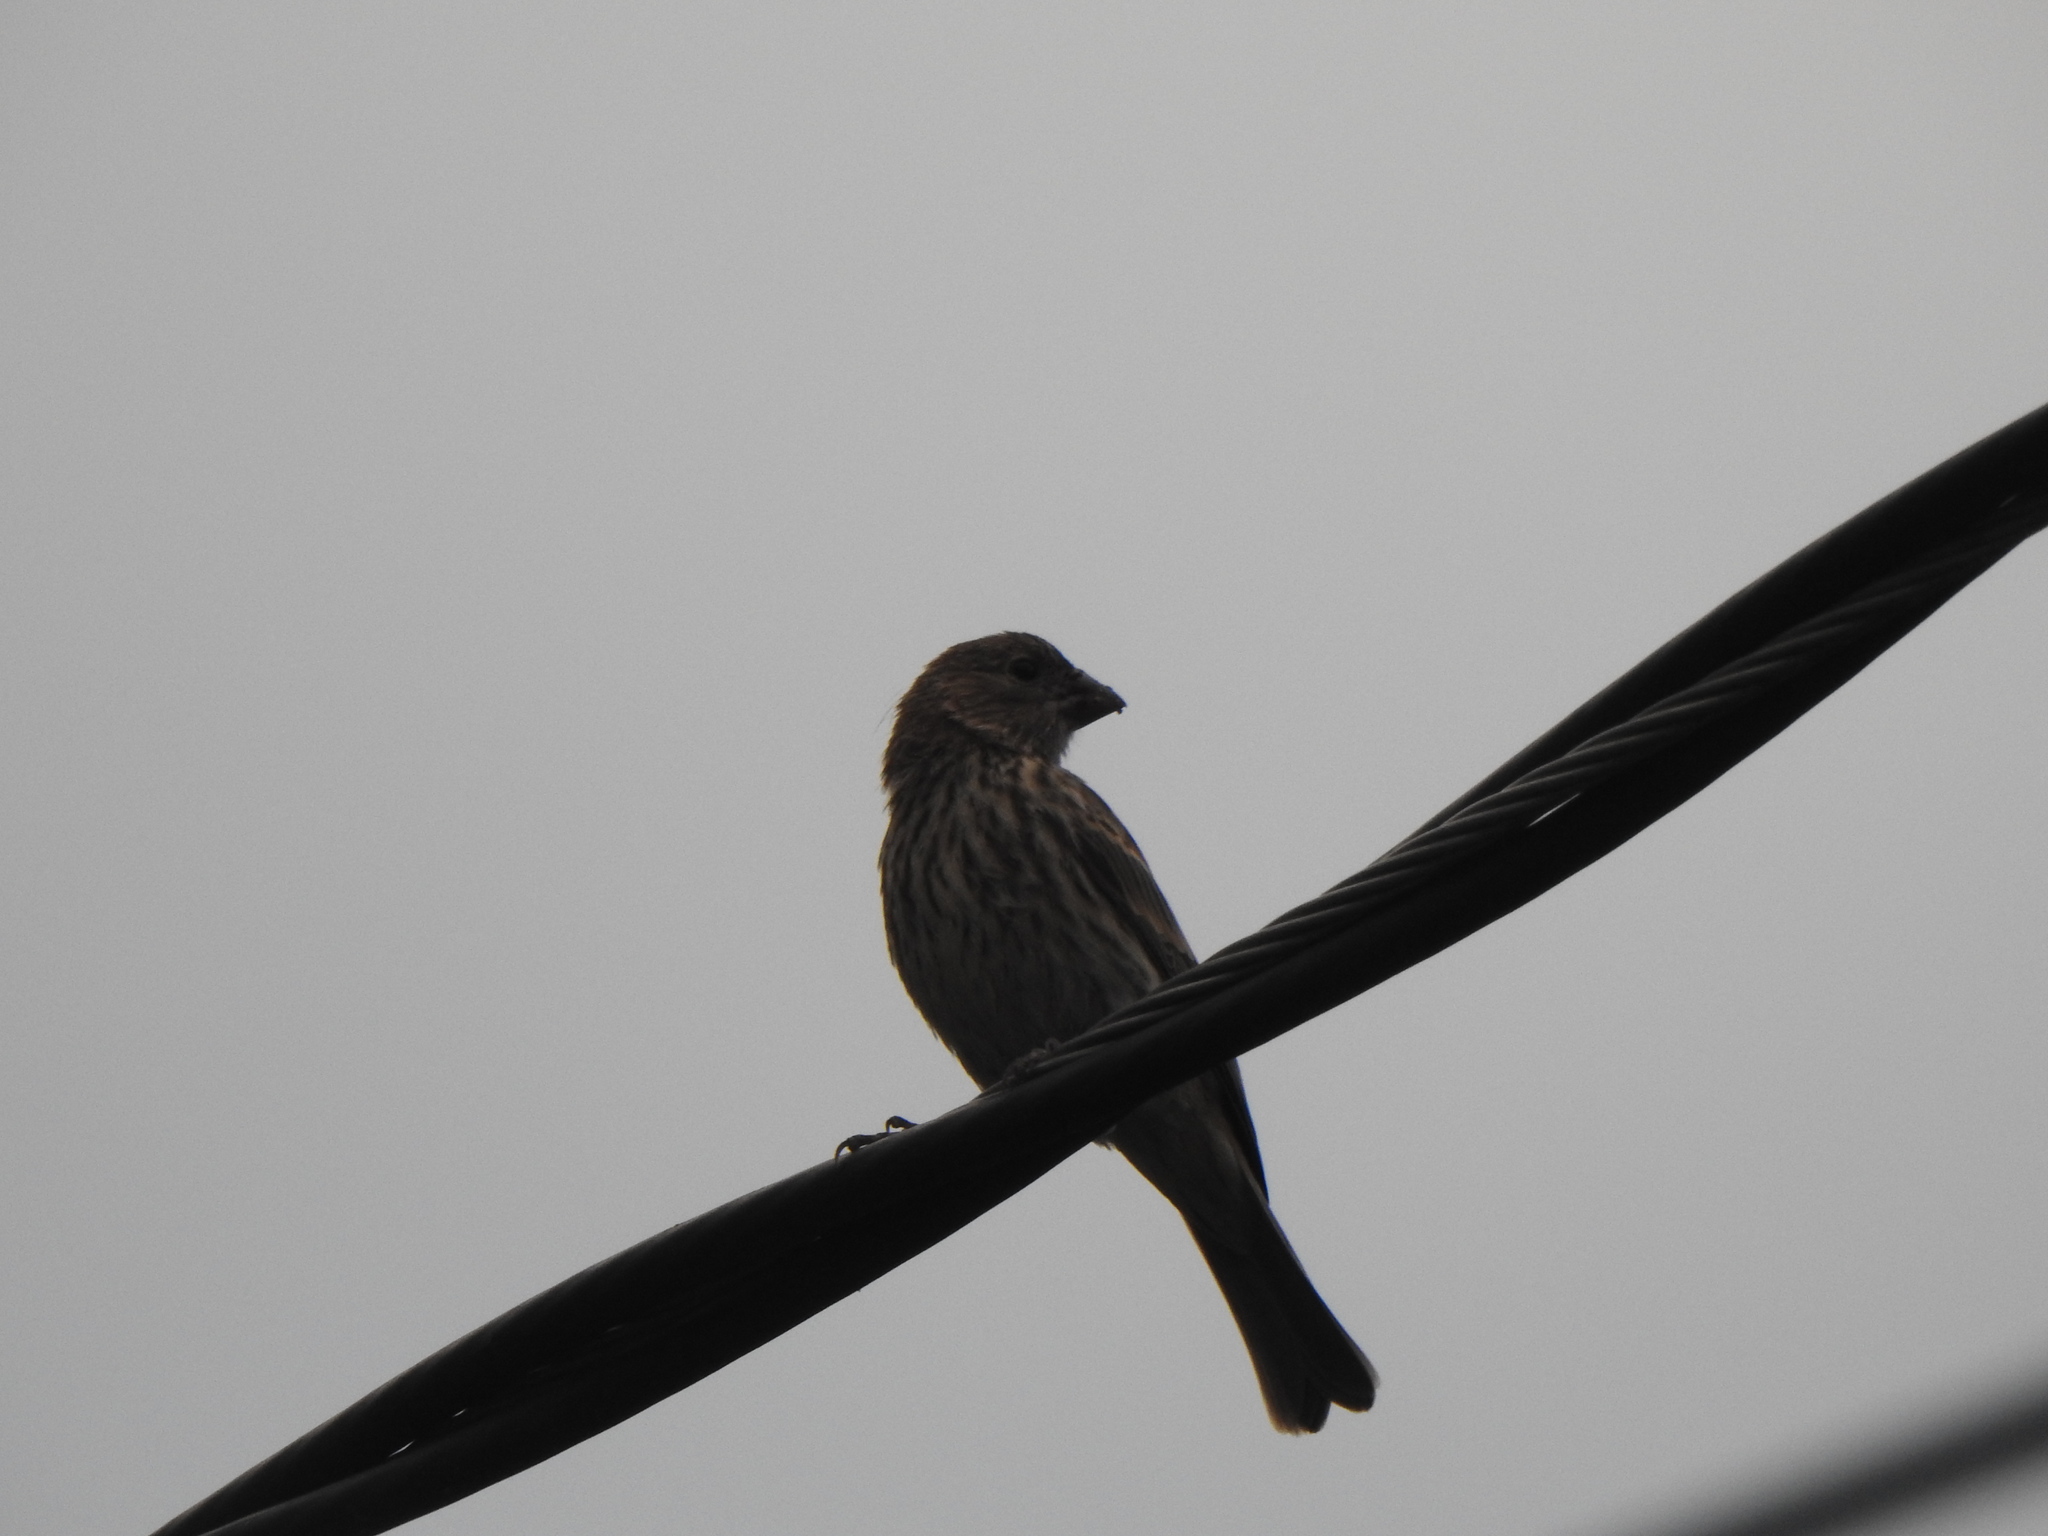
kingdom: Animalia
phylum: Chordata
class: Aves
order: Passeriformes
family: Fringillidae
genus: Haemorhous
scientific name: Haemorhous mexicanus
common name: House finch
